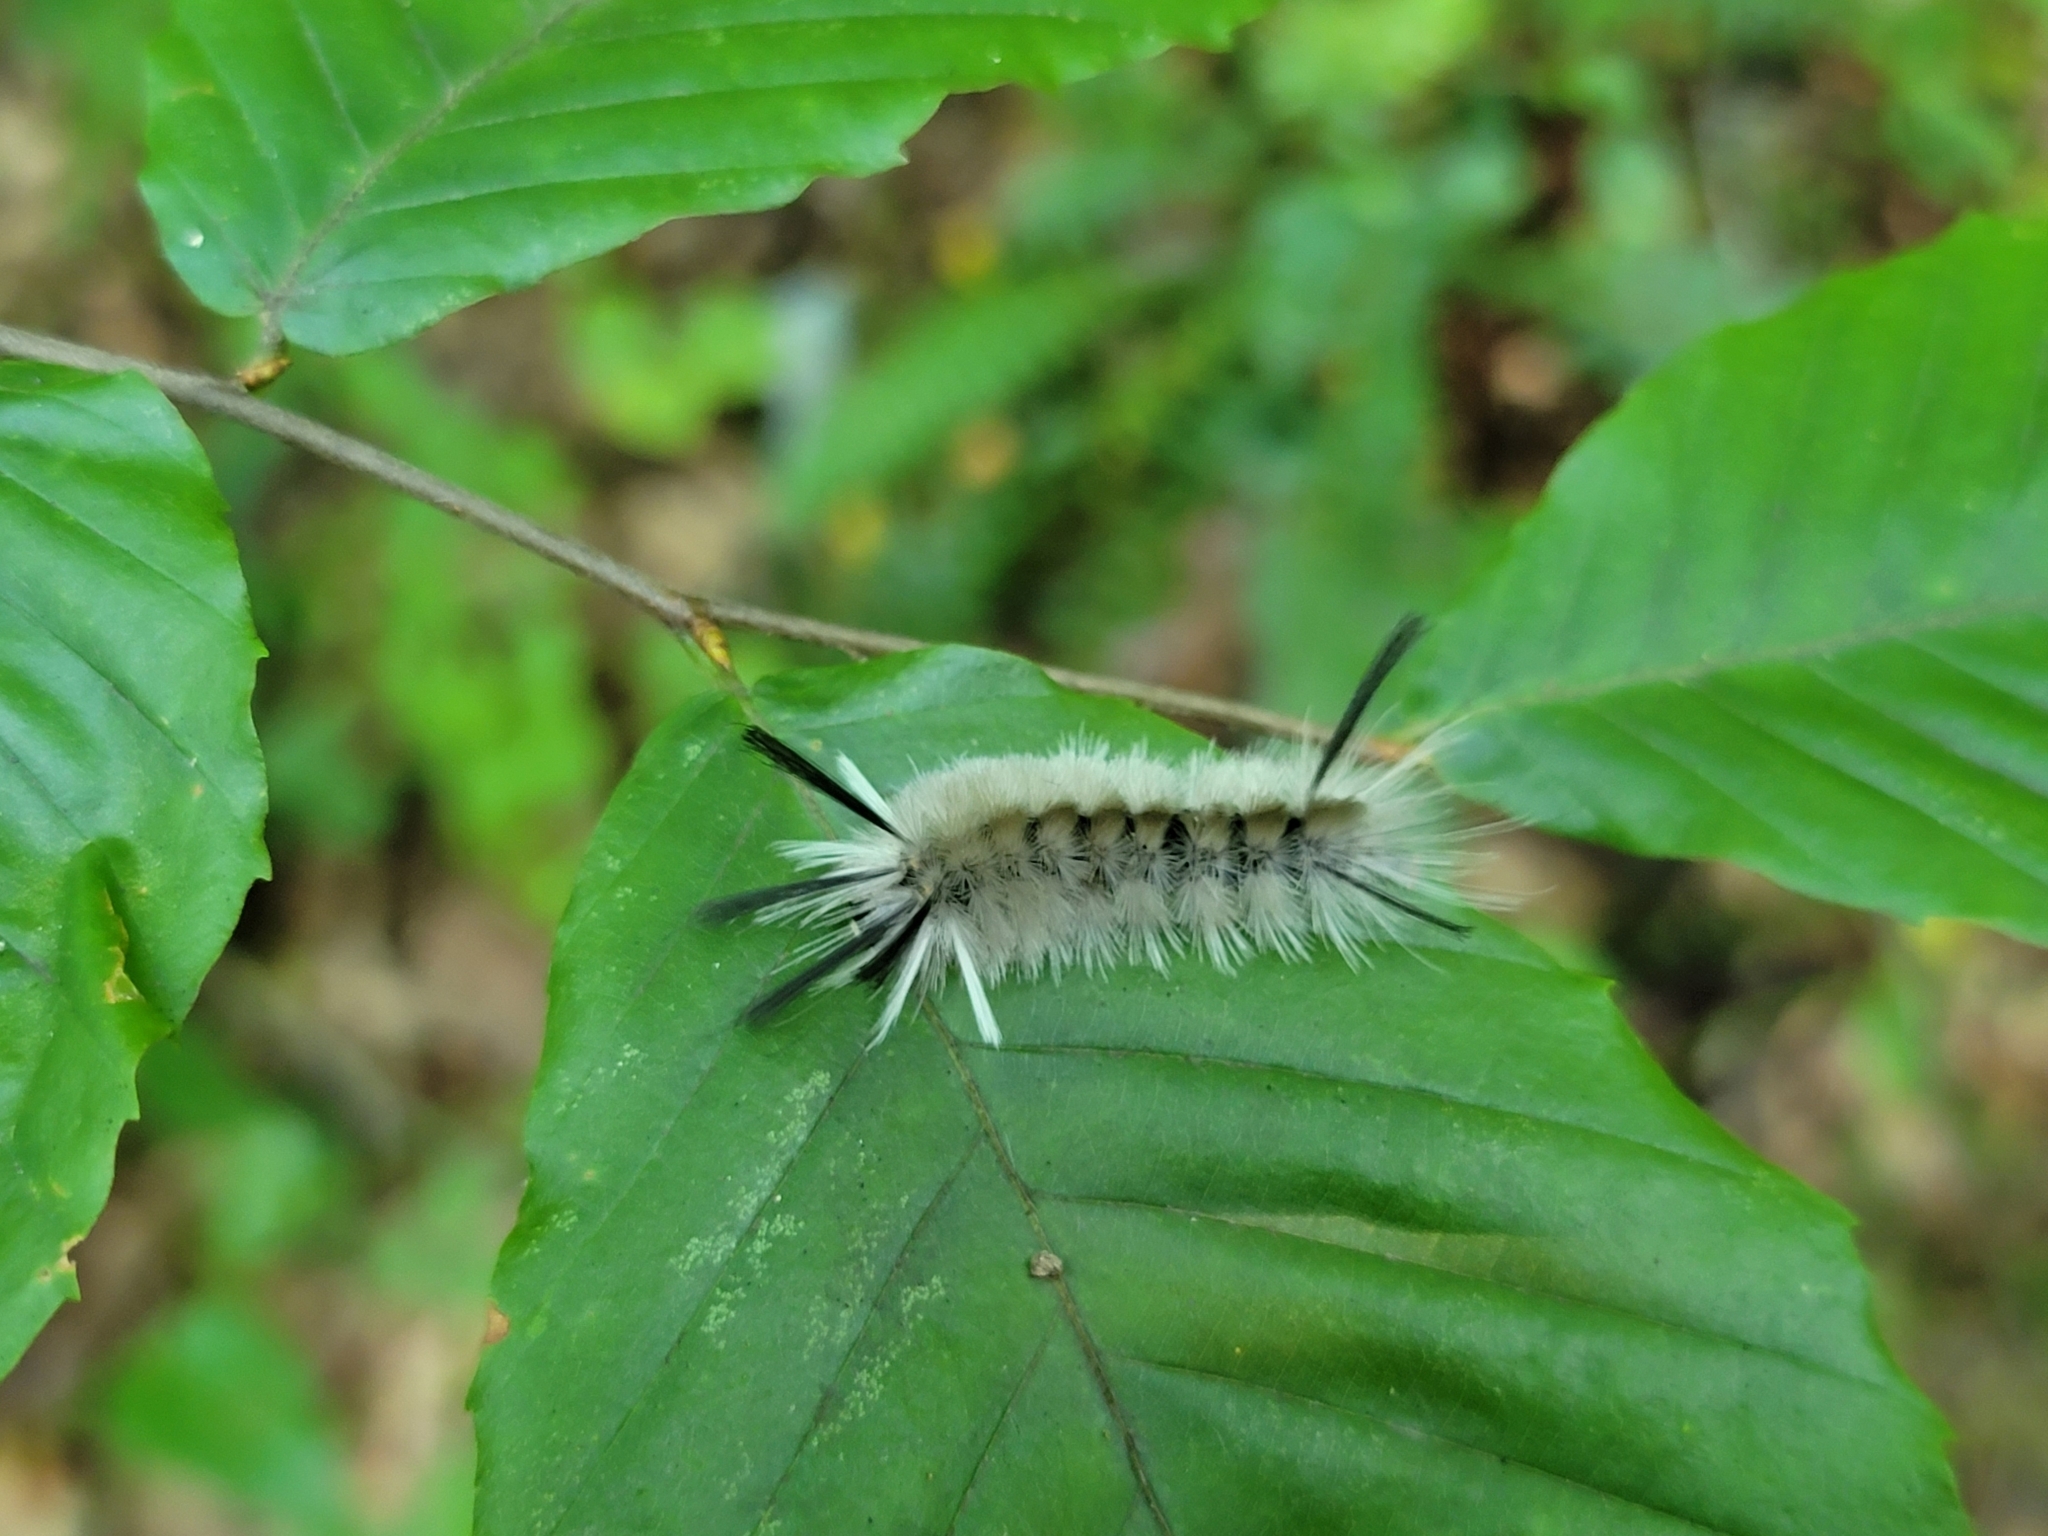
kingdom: Animalia
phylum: Arthropoda
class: Insecta
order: Lepidoptera
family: Erebidae
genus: Halysidota
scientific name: Halysidota tessellaris
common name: Banded tussock moth
